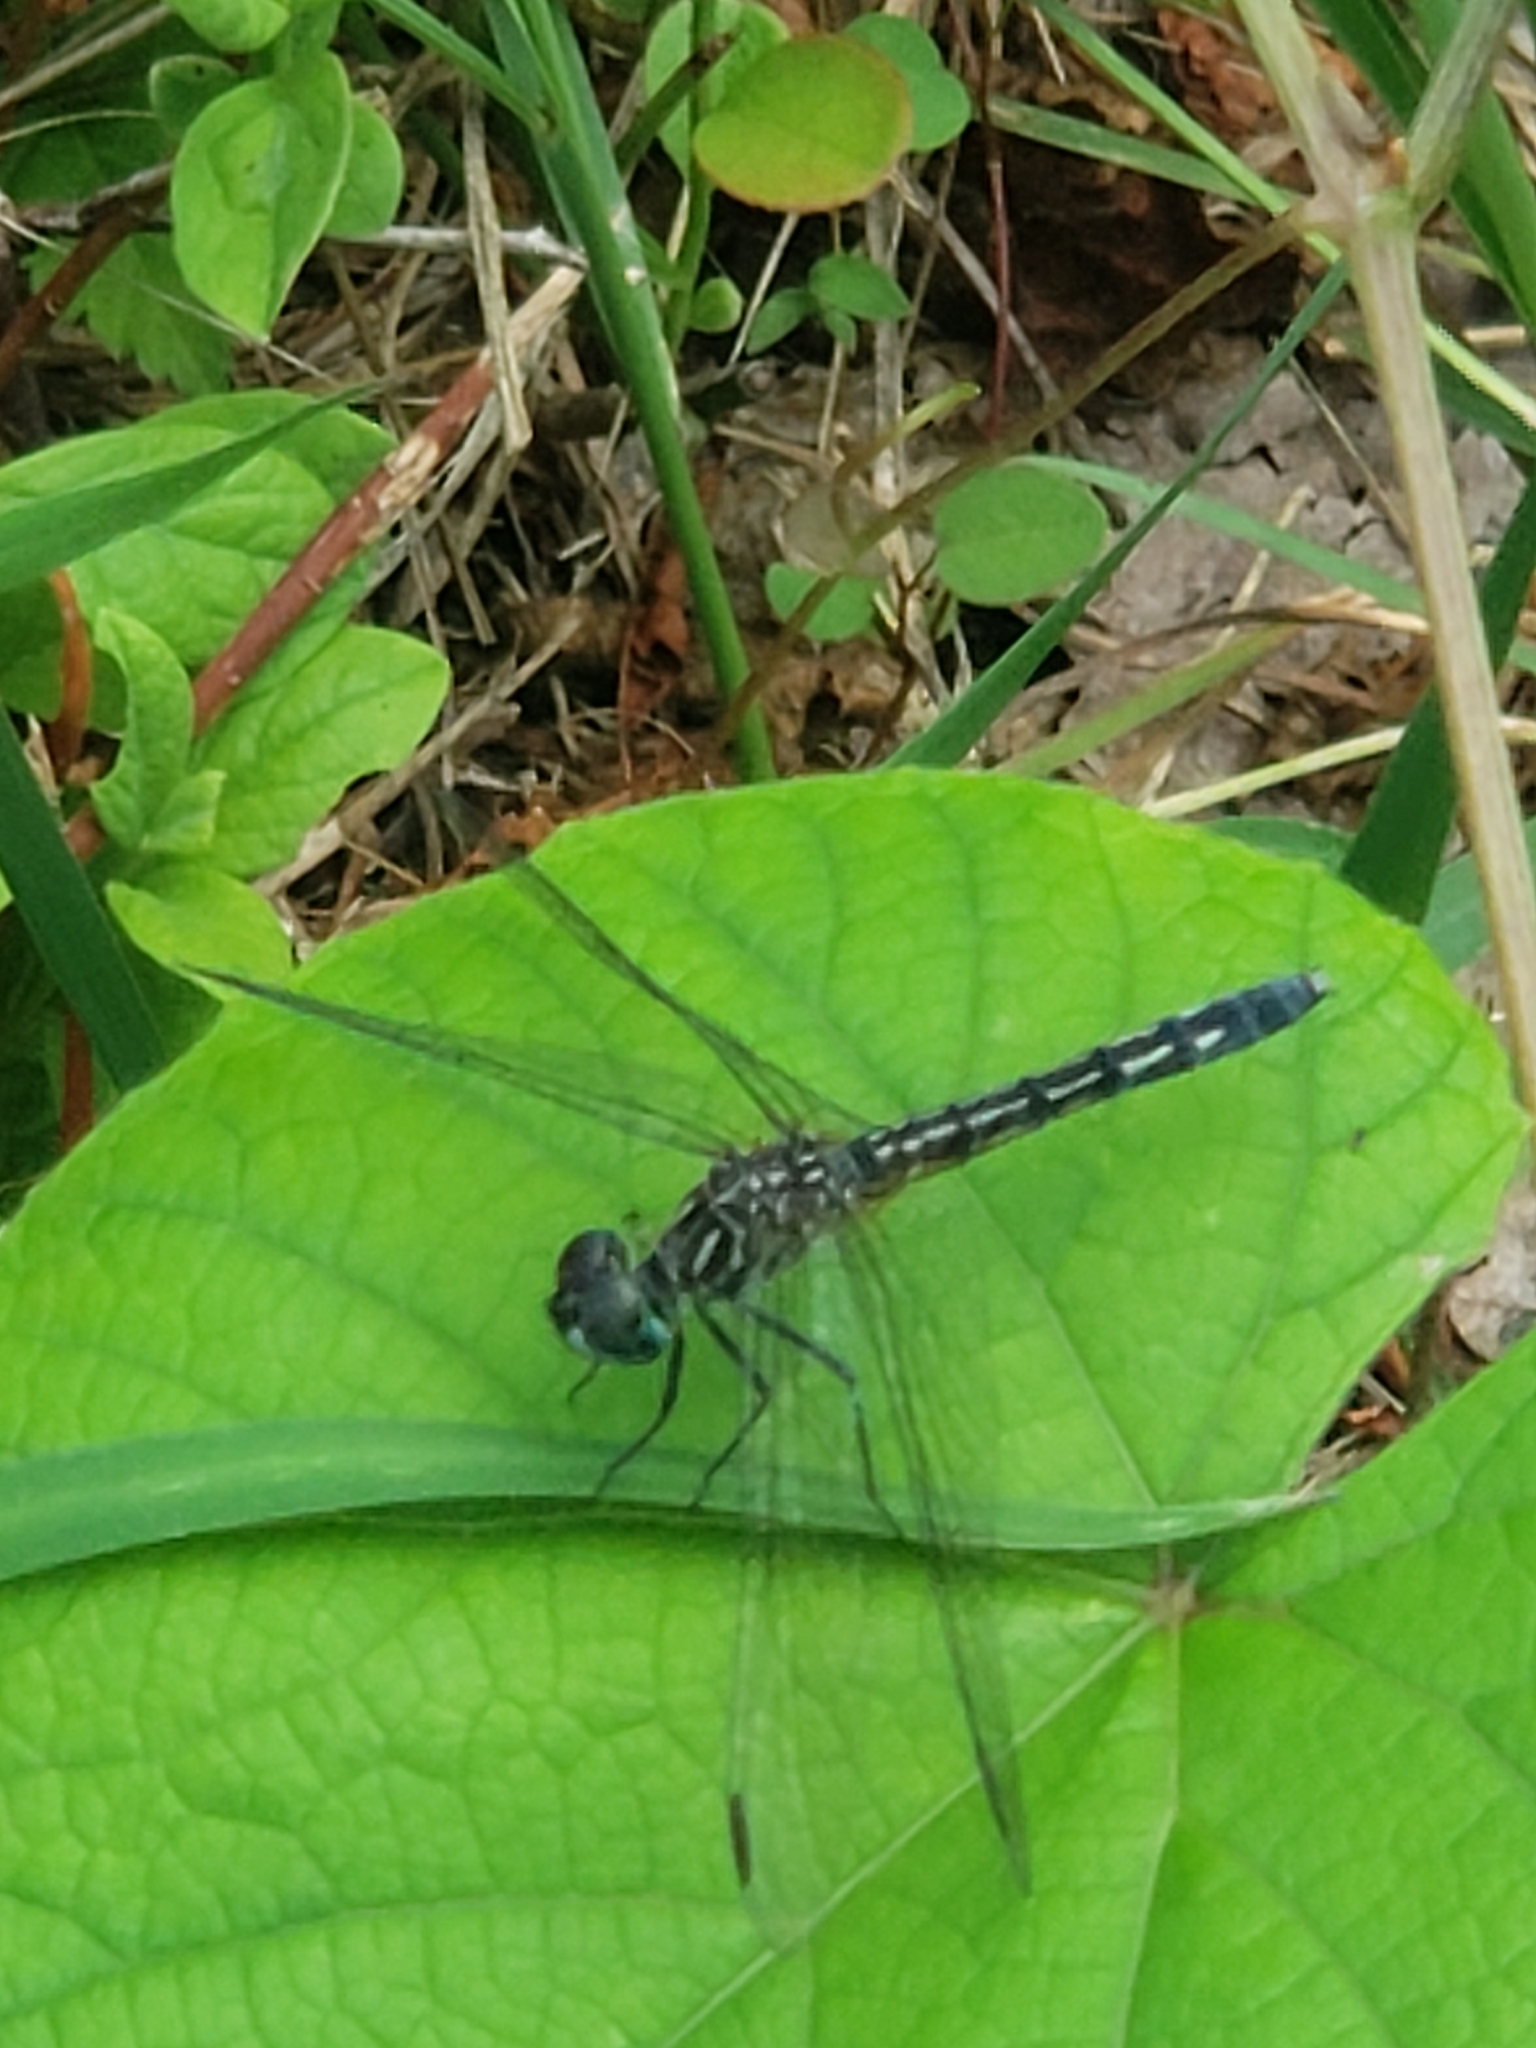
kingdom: Animalia
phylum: Arthropoda
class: Insecta
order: Odonata
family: Libellulidae
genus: Pachydiplax
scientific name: Pachydiplax longipennis
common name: Blue dasher
